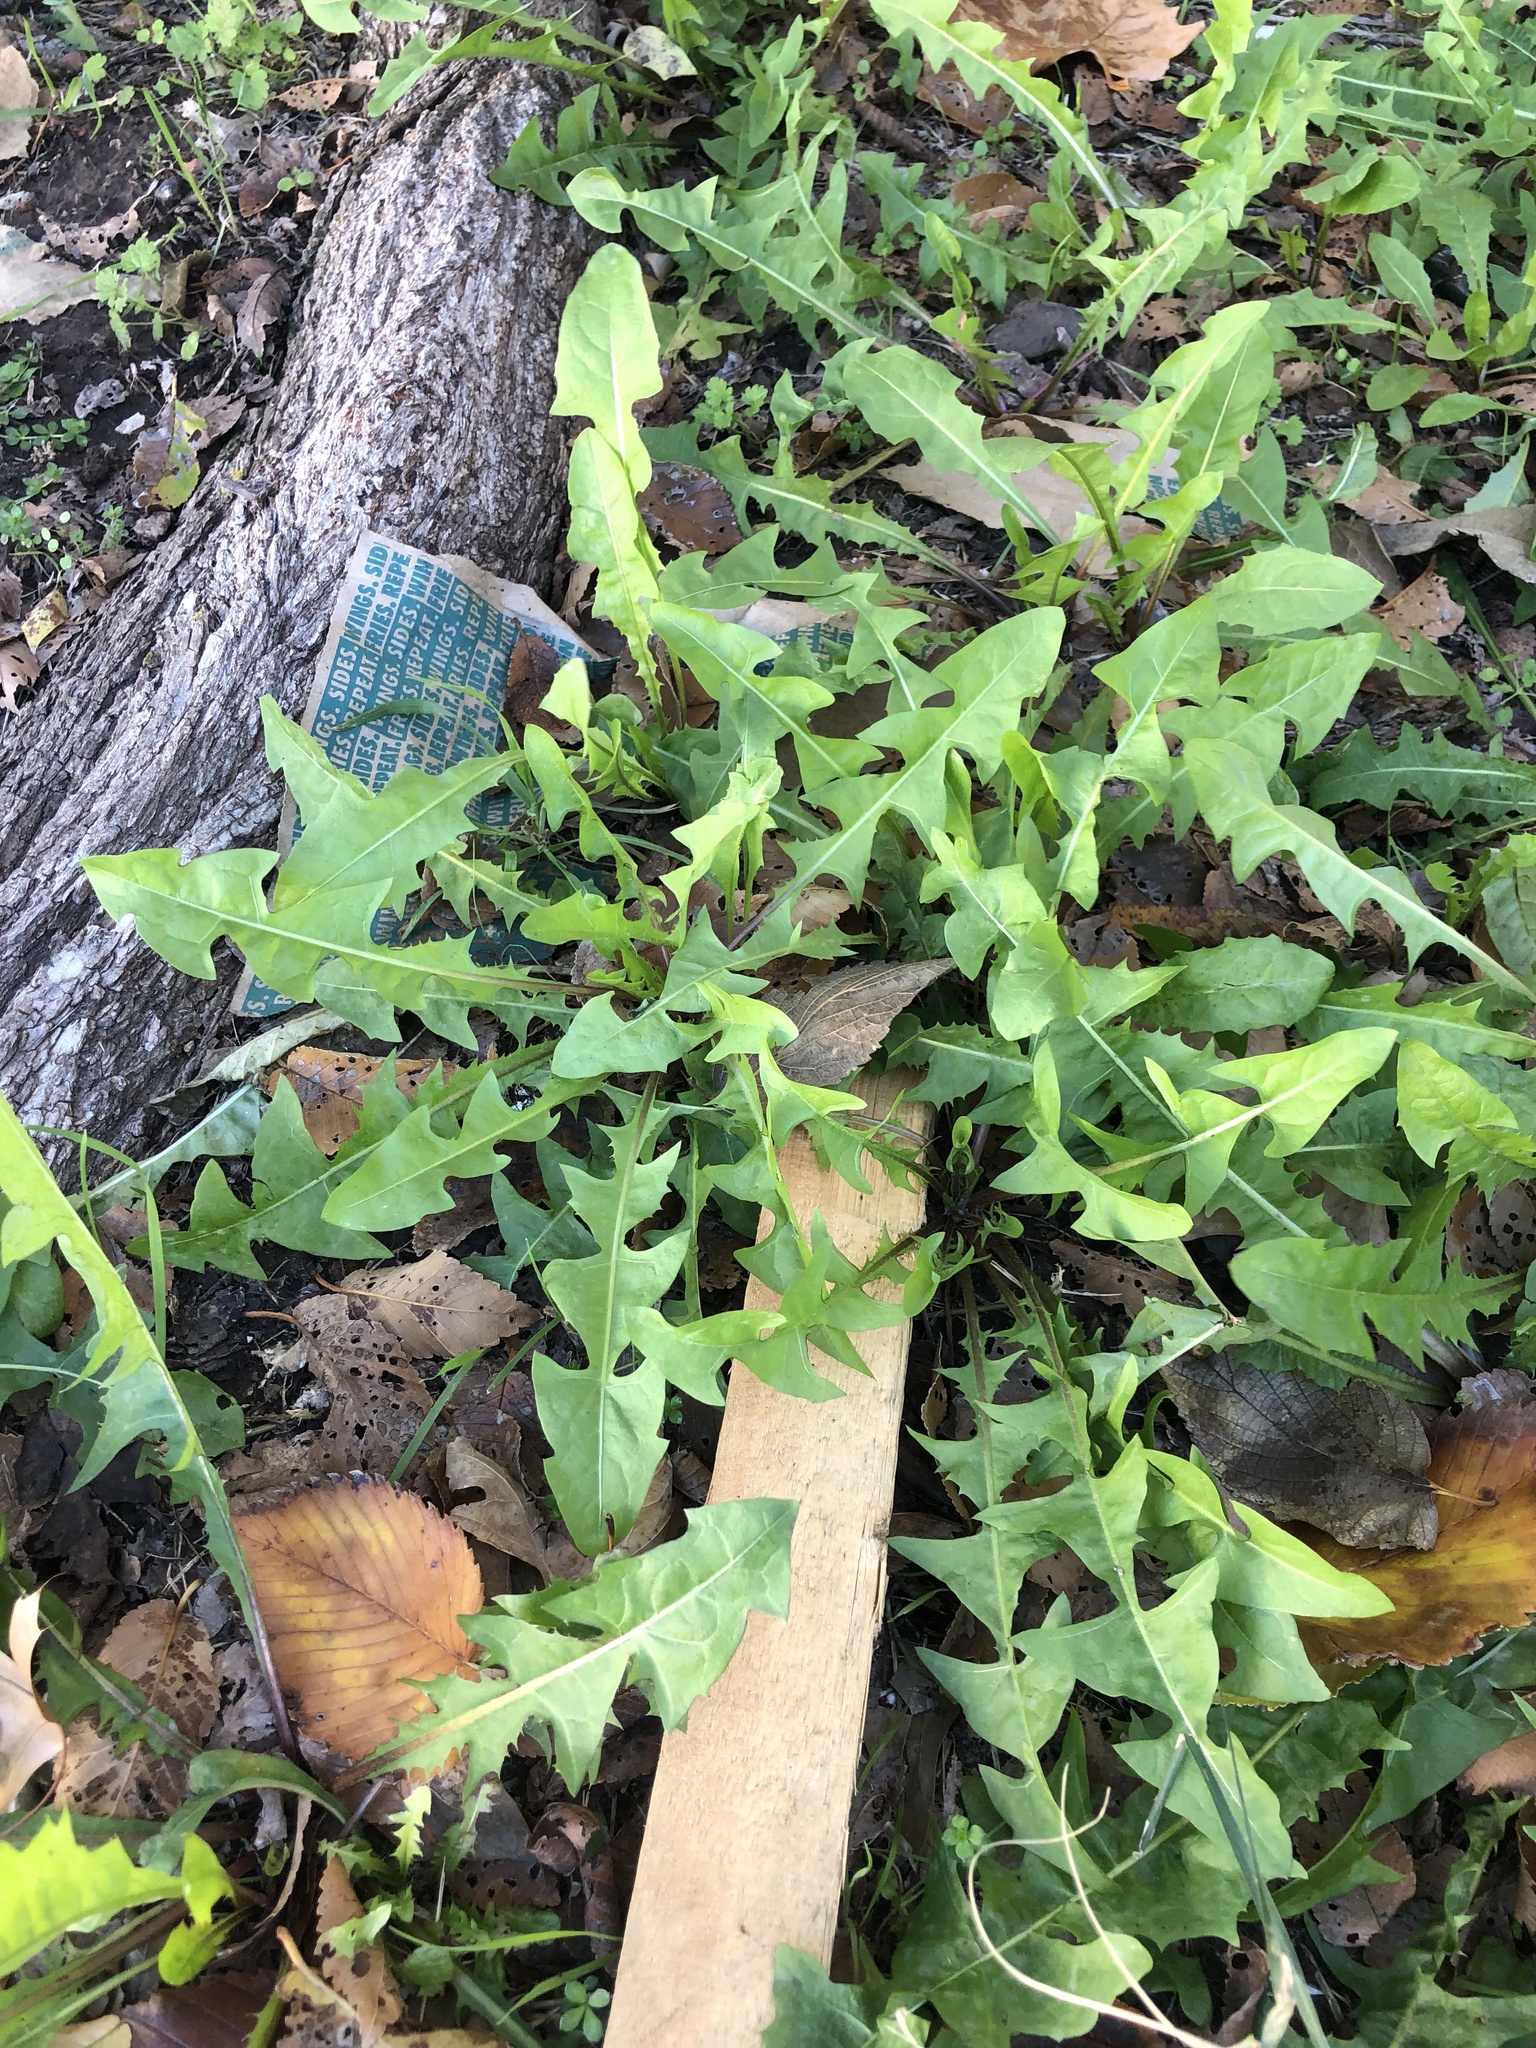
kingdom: Plantae
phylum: Tracheophyta
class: Magnoliopsida
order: Asterales
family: Asteraceae
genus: Taraxacum
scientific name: Taraxacum
